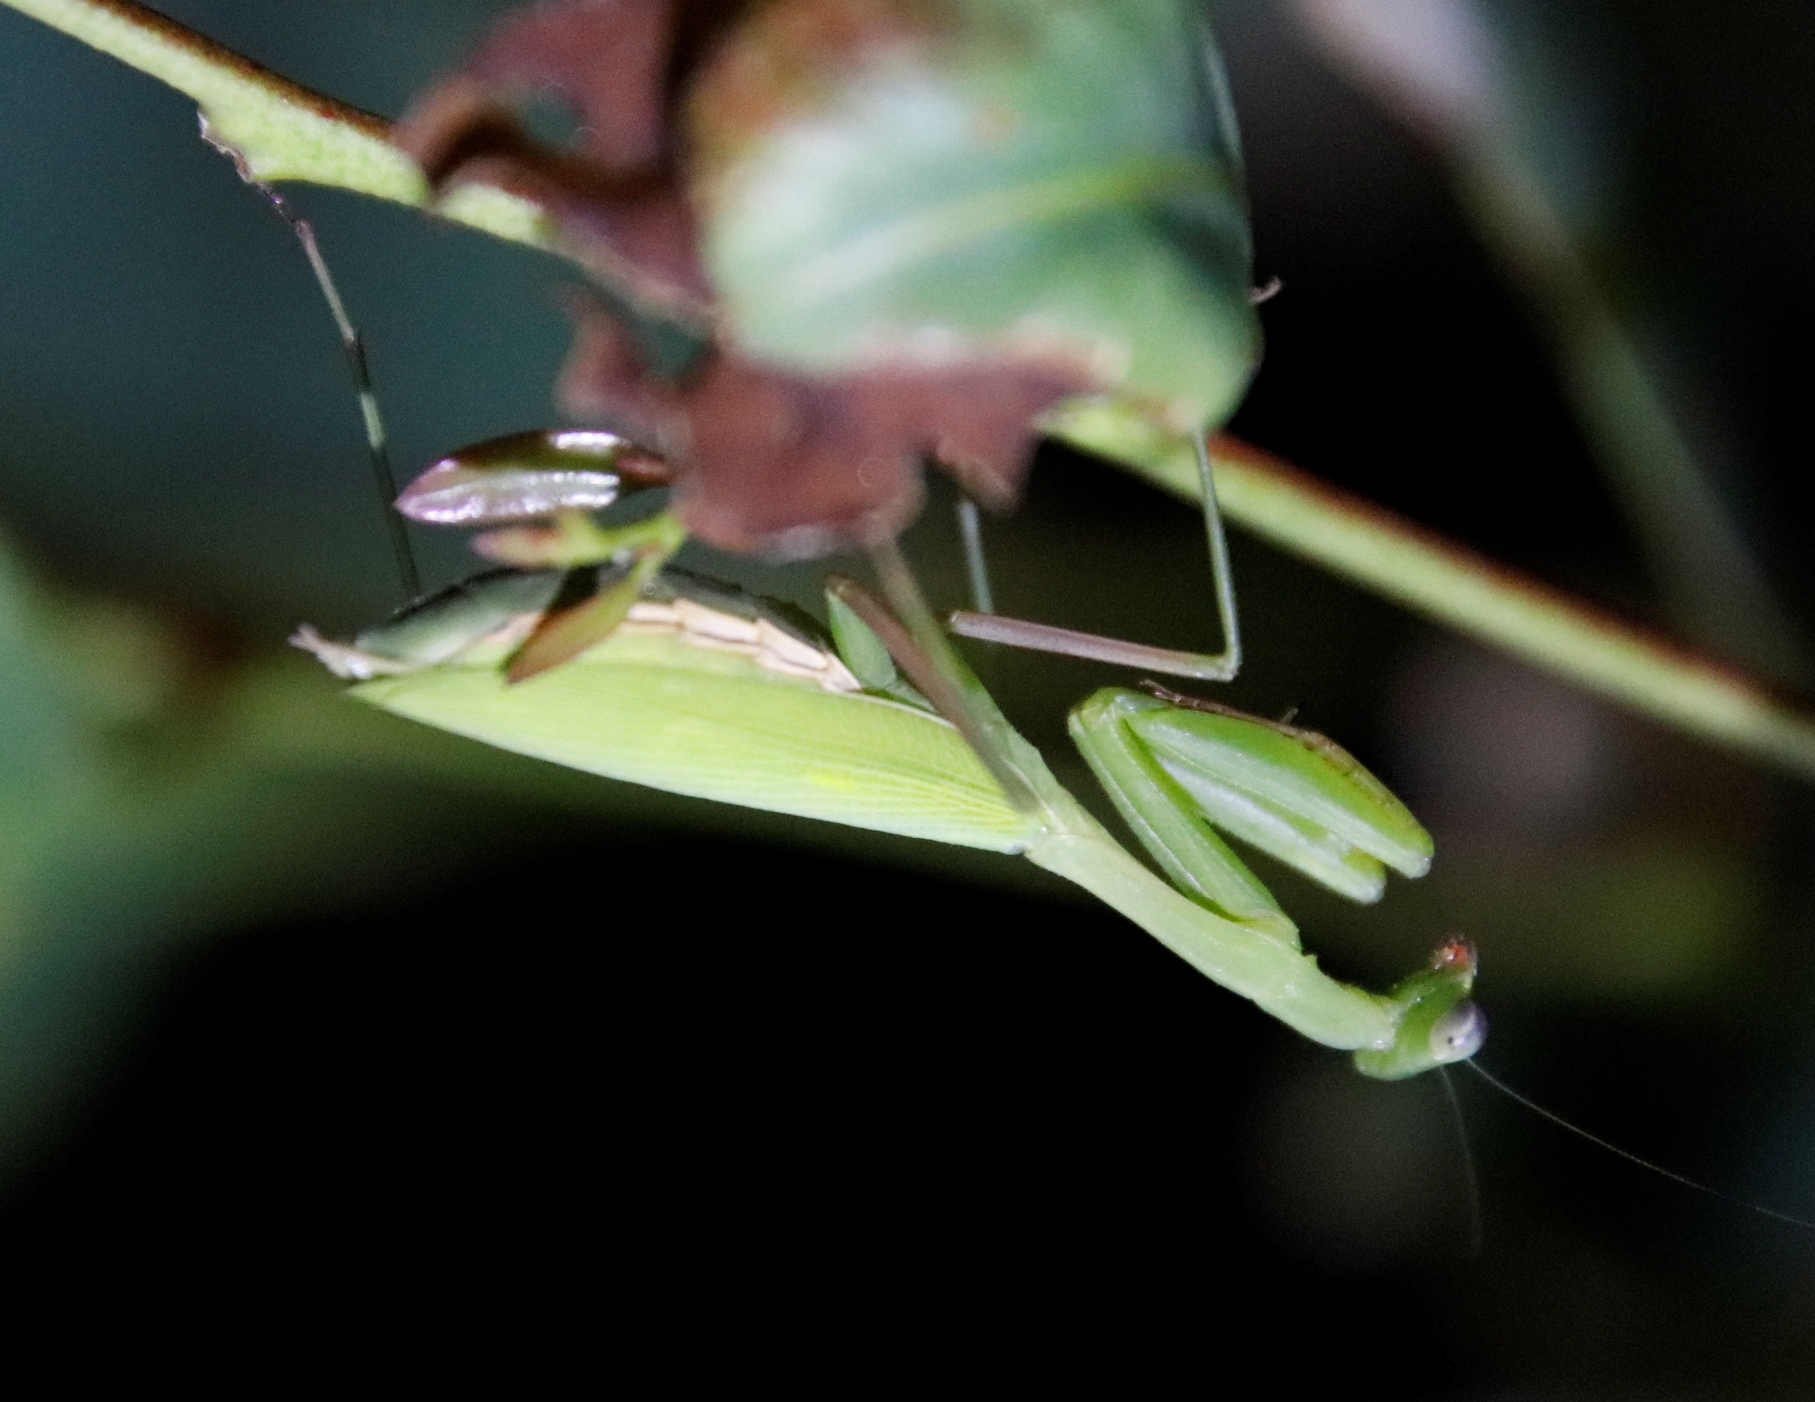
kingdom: Animalia
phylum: Arthropoda
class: Insecta
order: Mantodea
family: Miomantidae
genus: Miomantis
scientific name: Miomantis caffra
